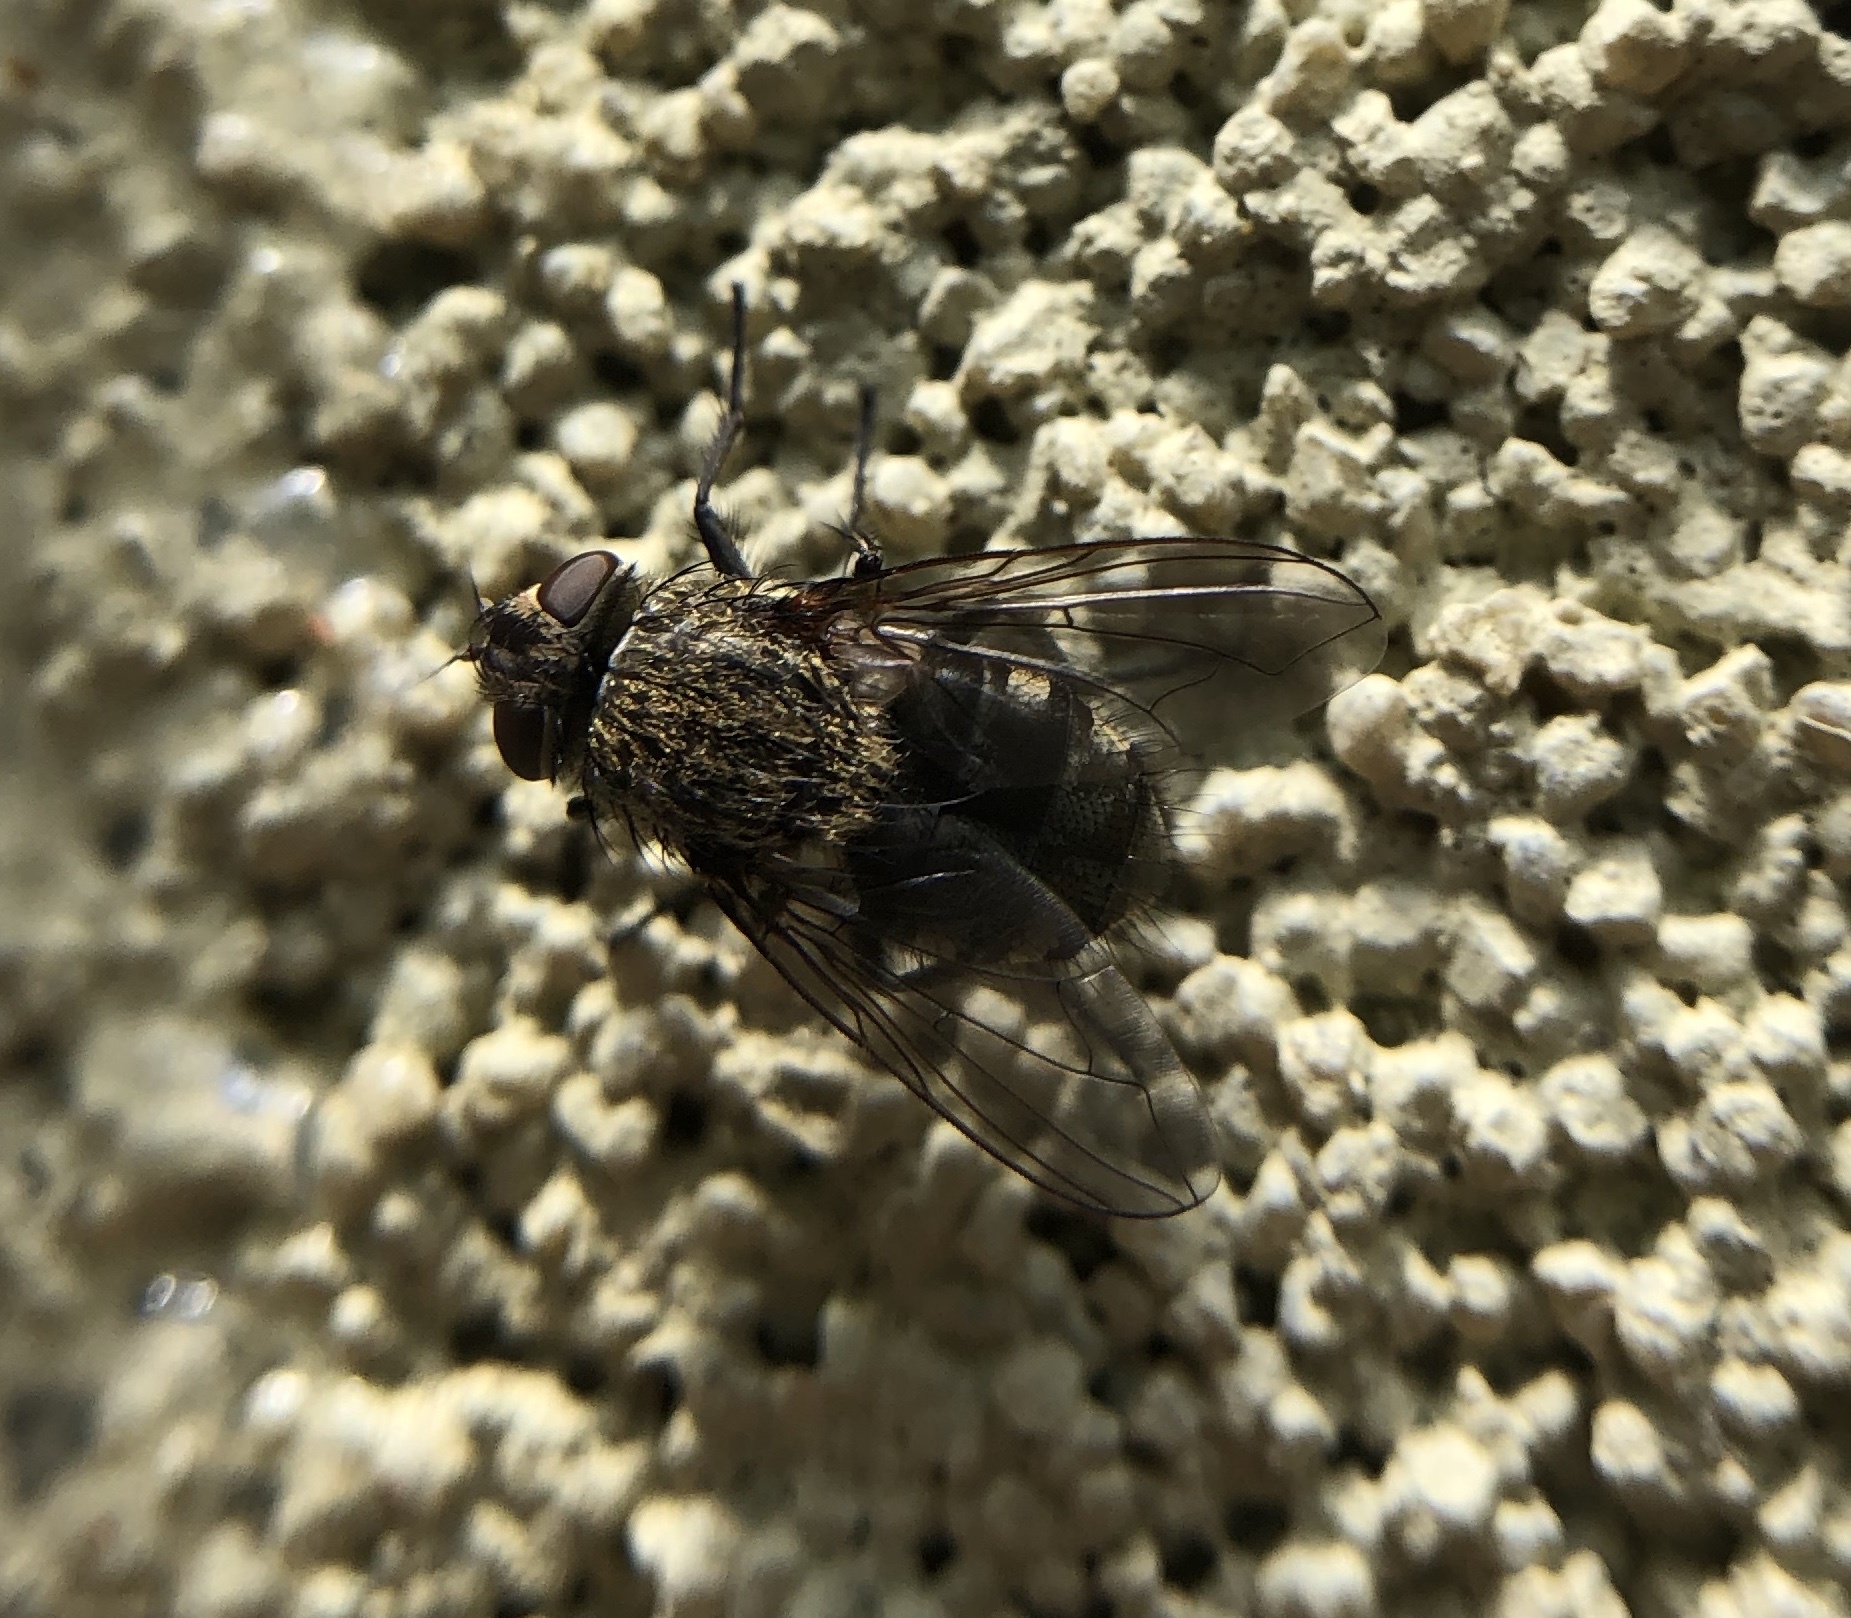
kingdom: Animalia
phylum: Arthropoda
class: Insecta
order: Diptera
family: Polleniidae
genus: Pollenia
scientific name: Pollenia
